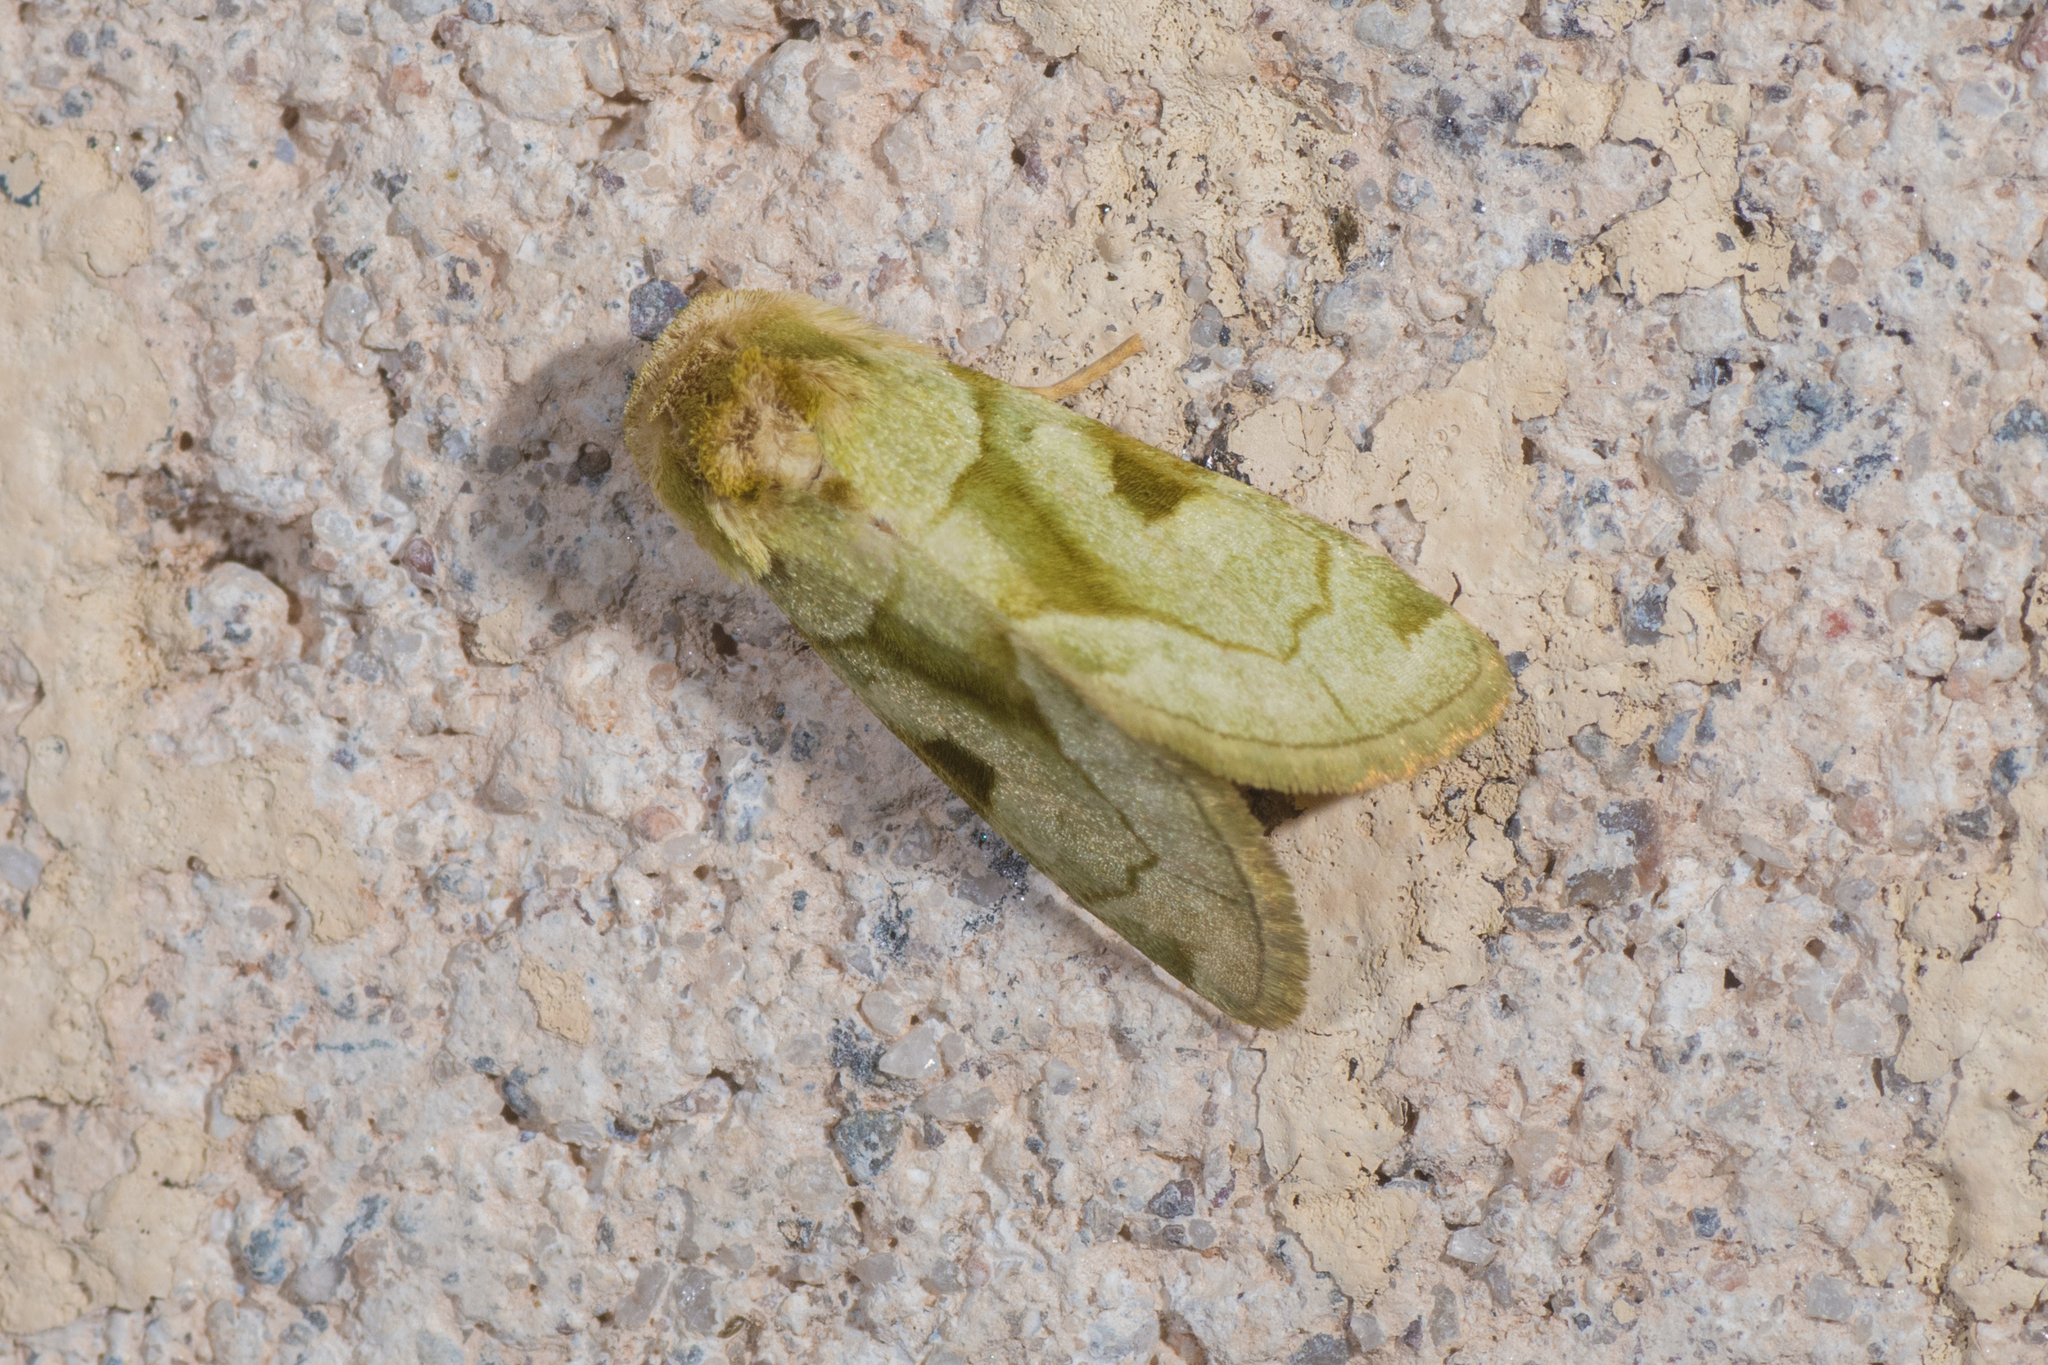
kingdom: Animalia
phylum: Arthropoda
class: Insecta
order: Lepidoptera
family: Noctuidae
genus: Oslaria
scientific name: Oslaria viridifera
